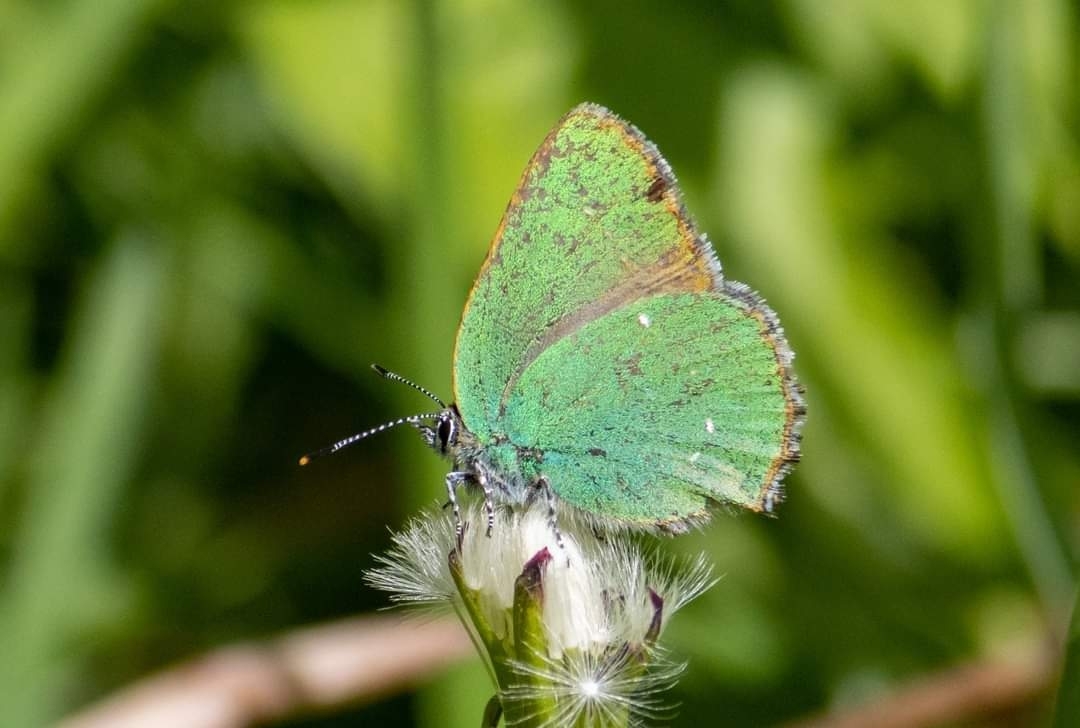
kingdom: Animalia
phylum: Arthropoda
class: Insecta
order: Lepidoptera
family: Lycaenidae
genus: Callophrys
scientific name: Callophrys rubi
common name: Green hairstreak
